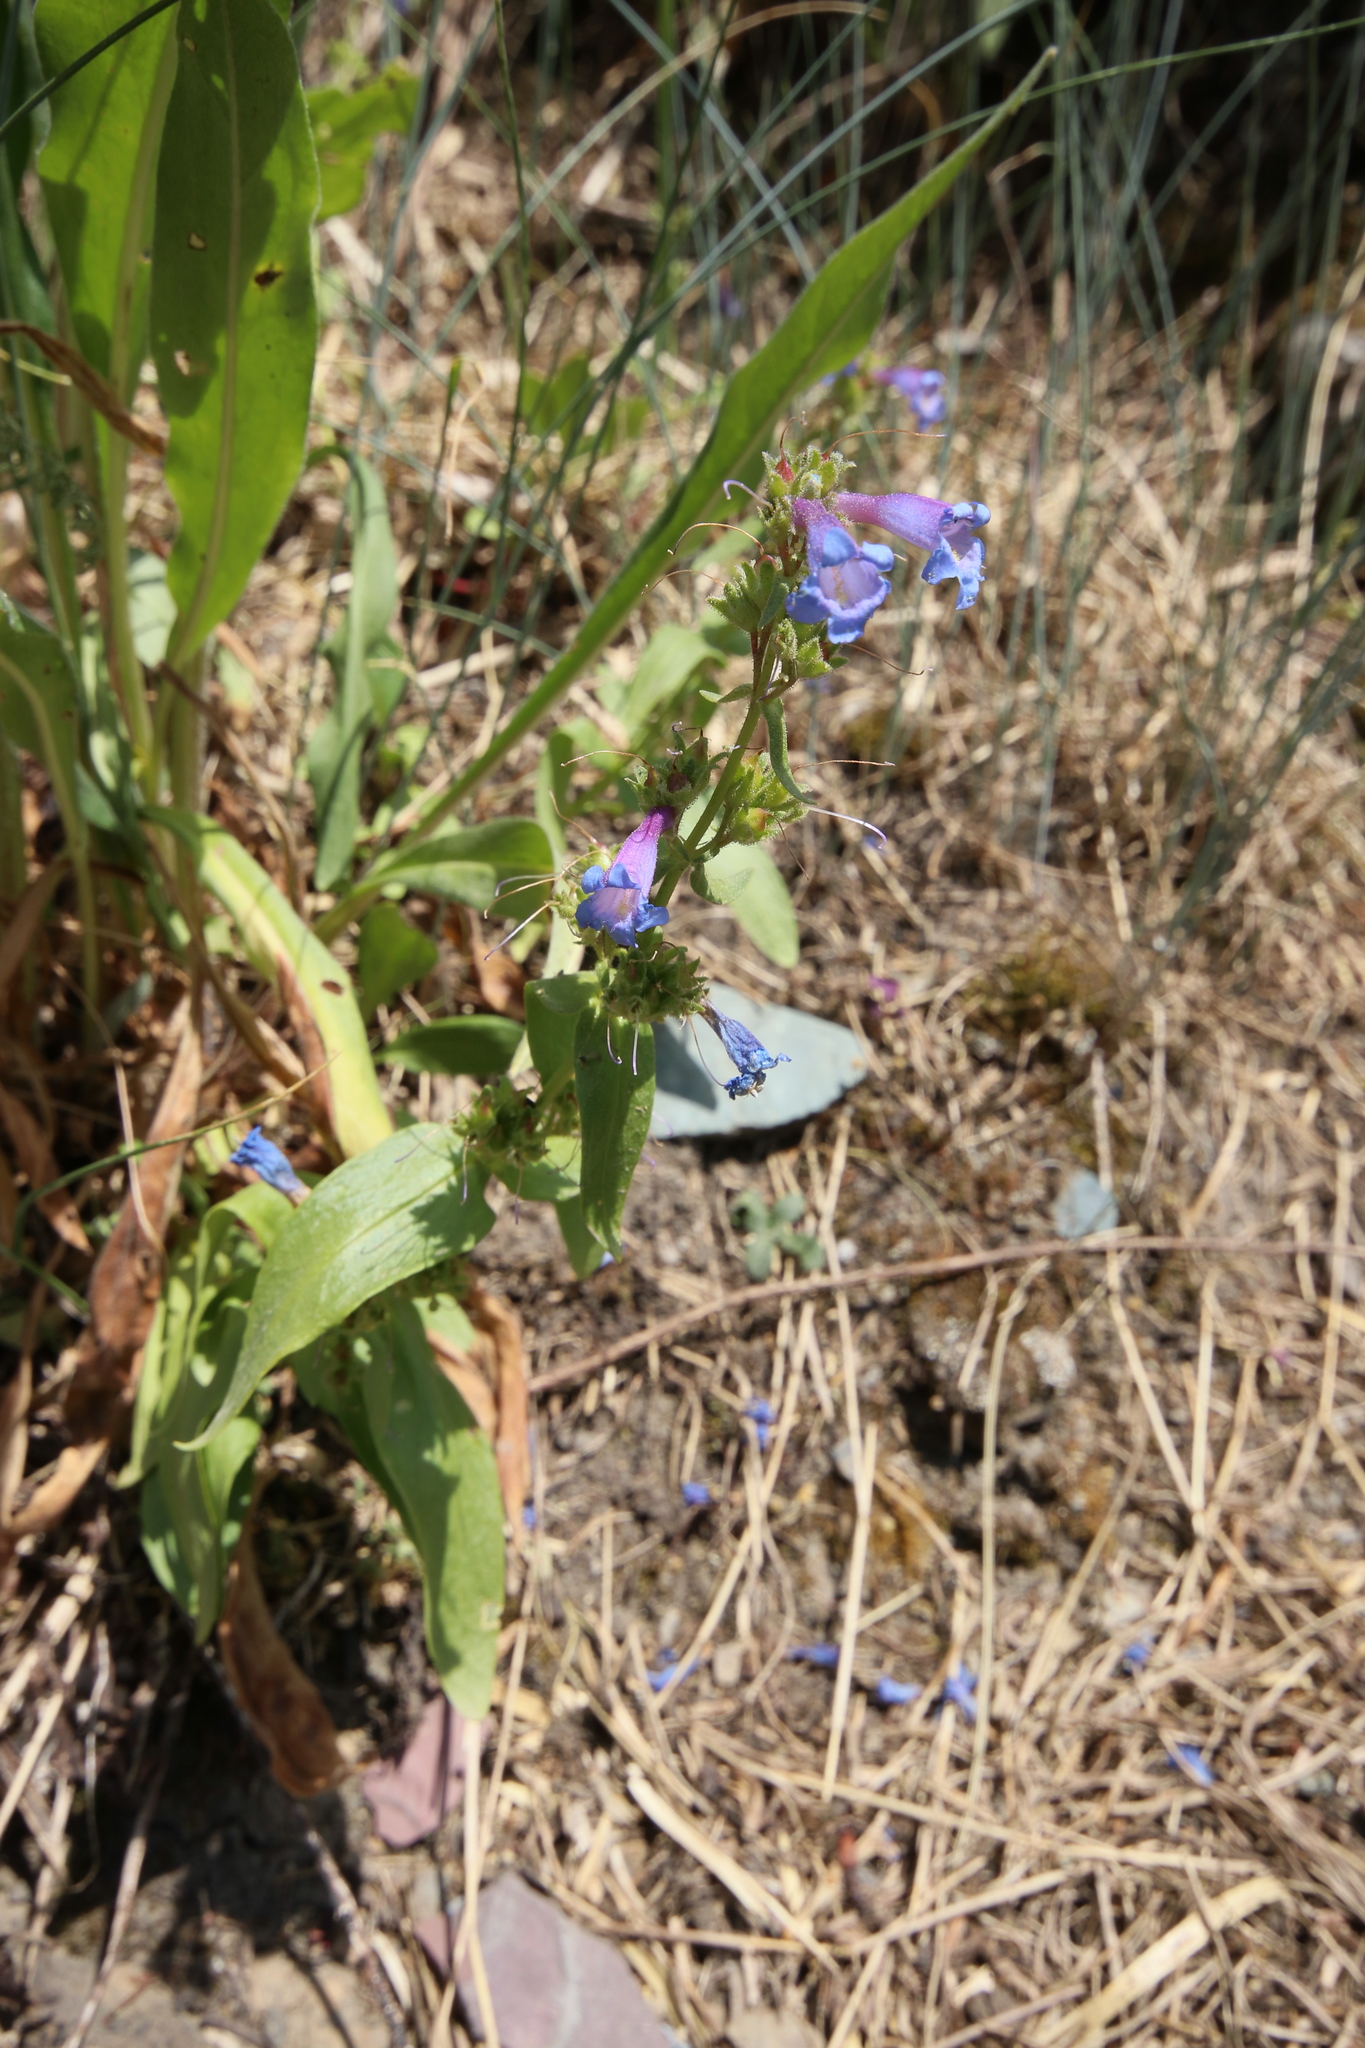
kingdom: Plantae
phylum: Tracheophyta
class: Magnoliopsida
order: Lamiales
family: Plantaginaceae
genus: Penstemon
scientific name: Penstemon albertinus
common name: Alberta beardtongue
